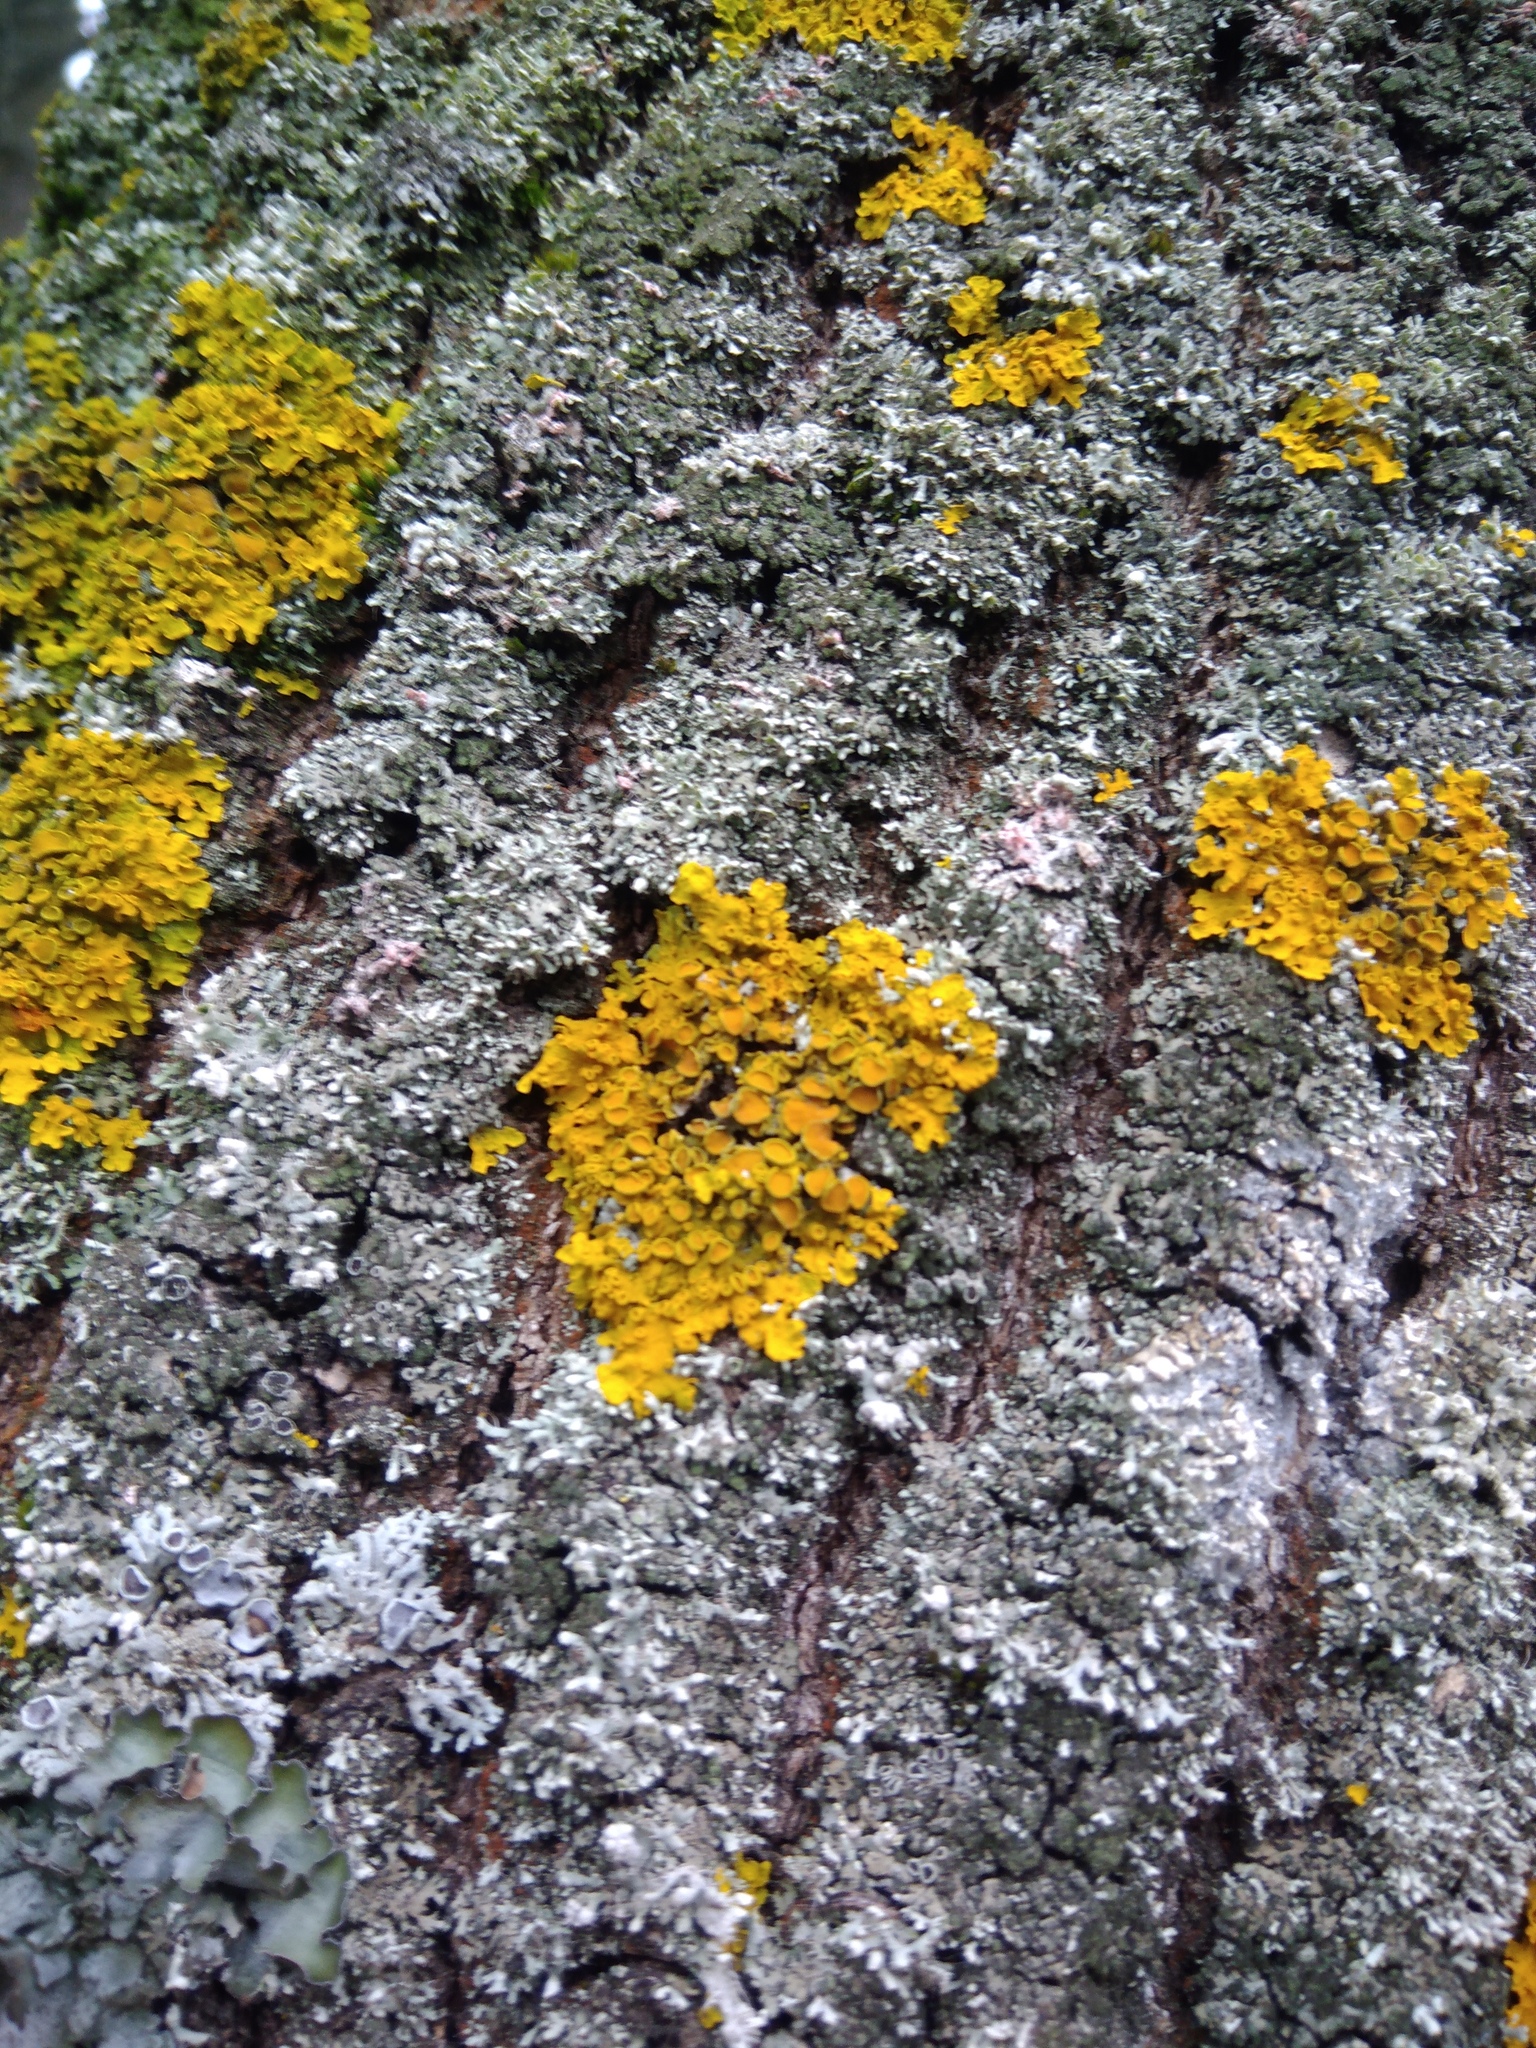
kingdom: Fungi
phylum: Ascomycota
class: Lecanoromycetes
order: Teloschistales
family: Teloschistaceae
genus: Xanthoria
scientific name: Xanthoria parietina
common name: Common orange lichen
